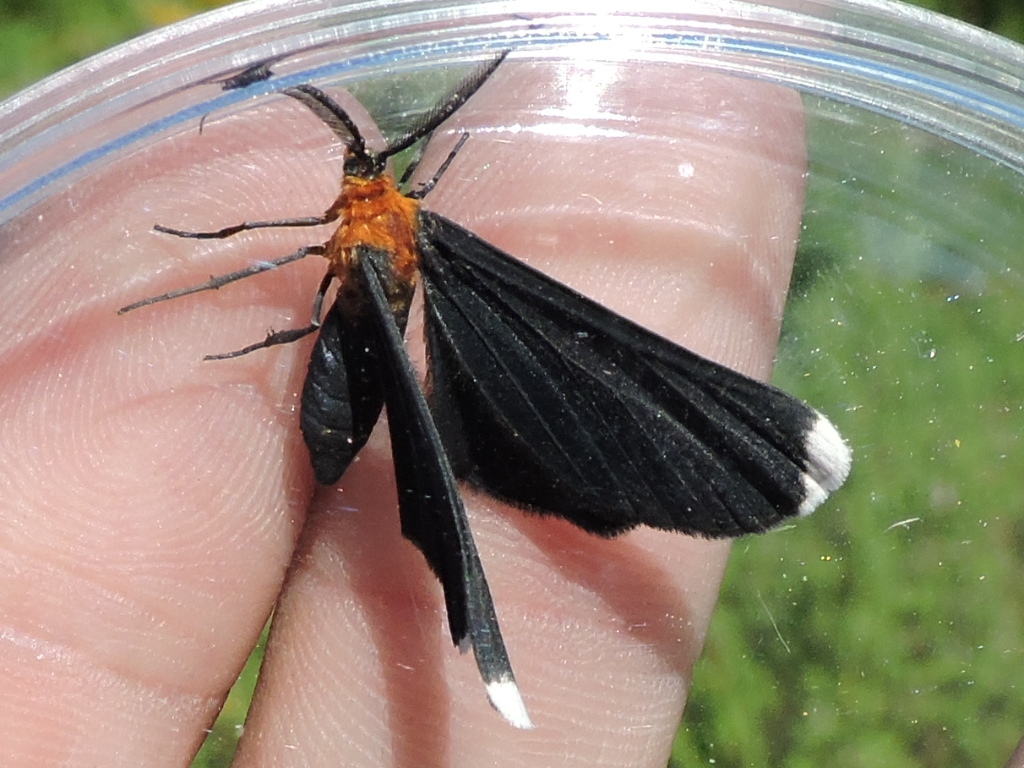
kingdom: Animalia
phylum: Arthropoda
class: Insecta
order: Lepidoptera
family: Geometridae
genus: Melanchroia
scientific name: Melanchroia chephise
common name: White-tipped black
